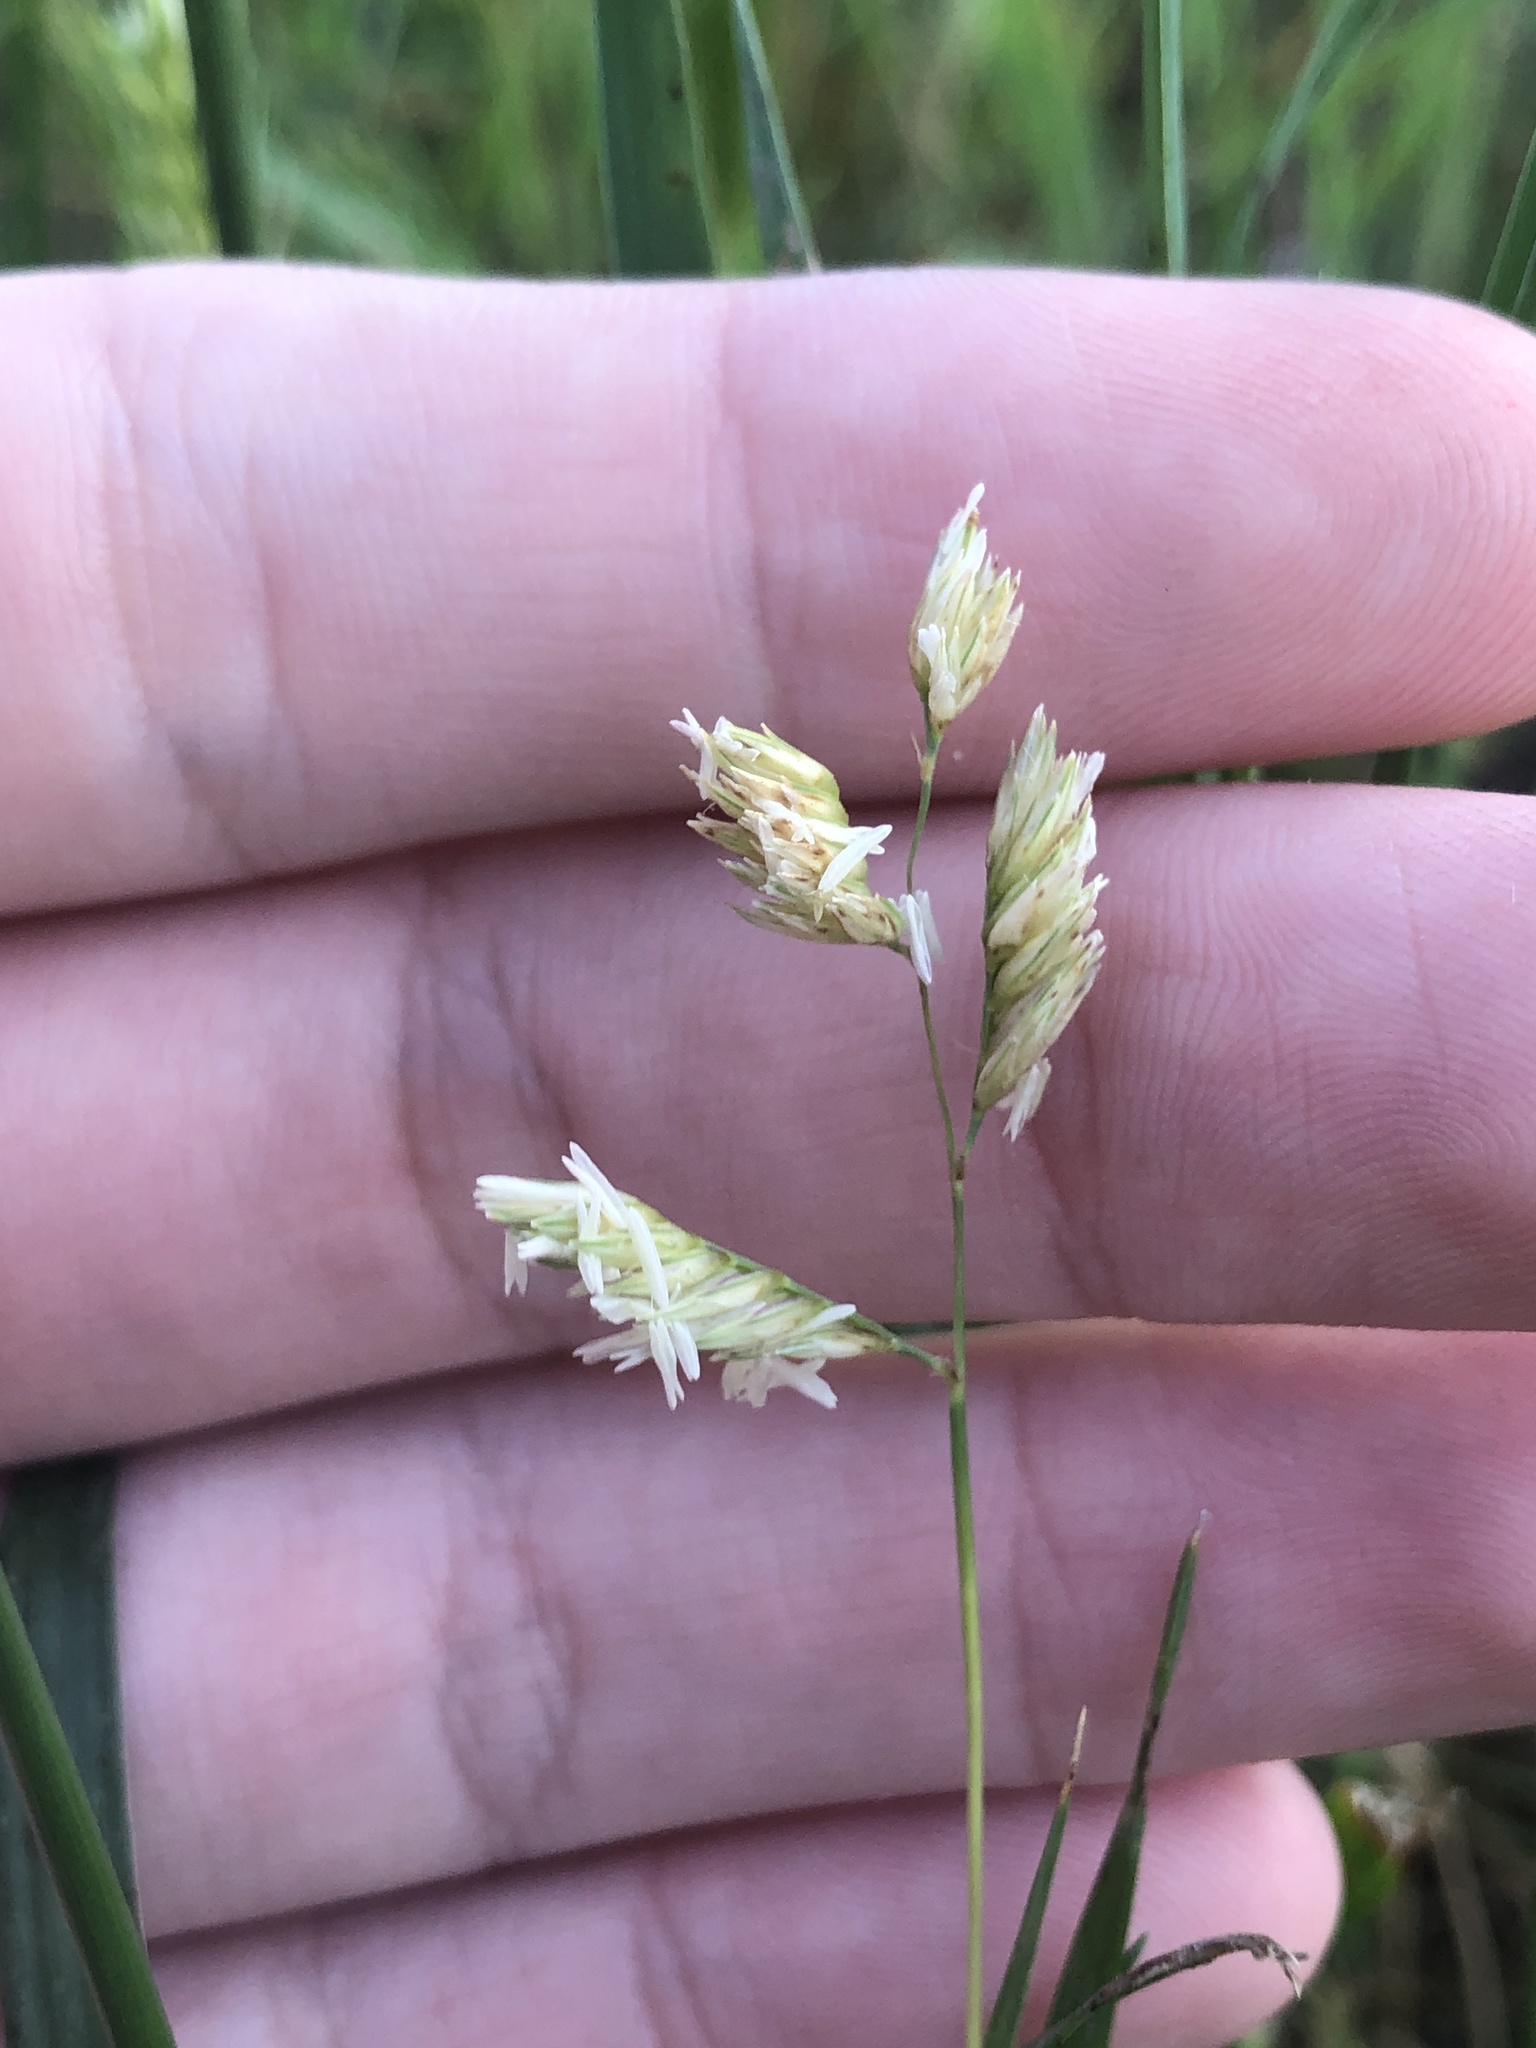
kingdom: Plantae
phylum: Tracheophyta
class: Liliopsida
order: Poales
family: Poaceae
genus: Bouteloua
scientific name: Bouteloua dactyloides
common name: Buffalo grass
